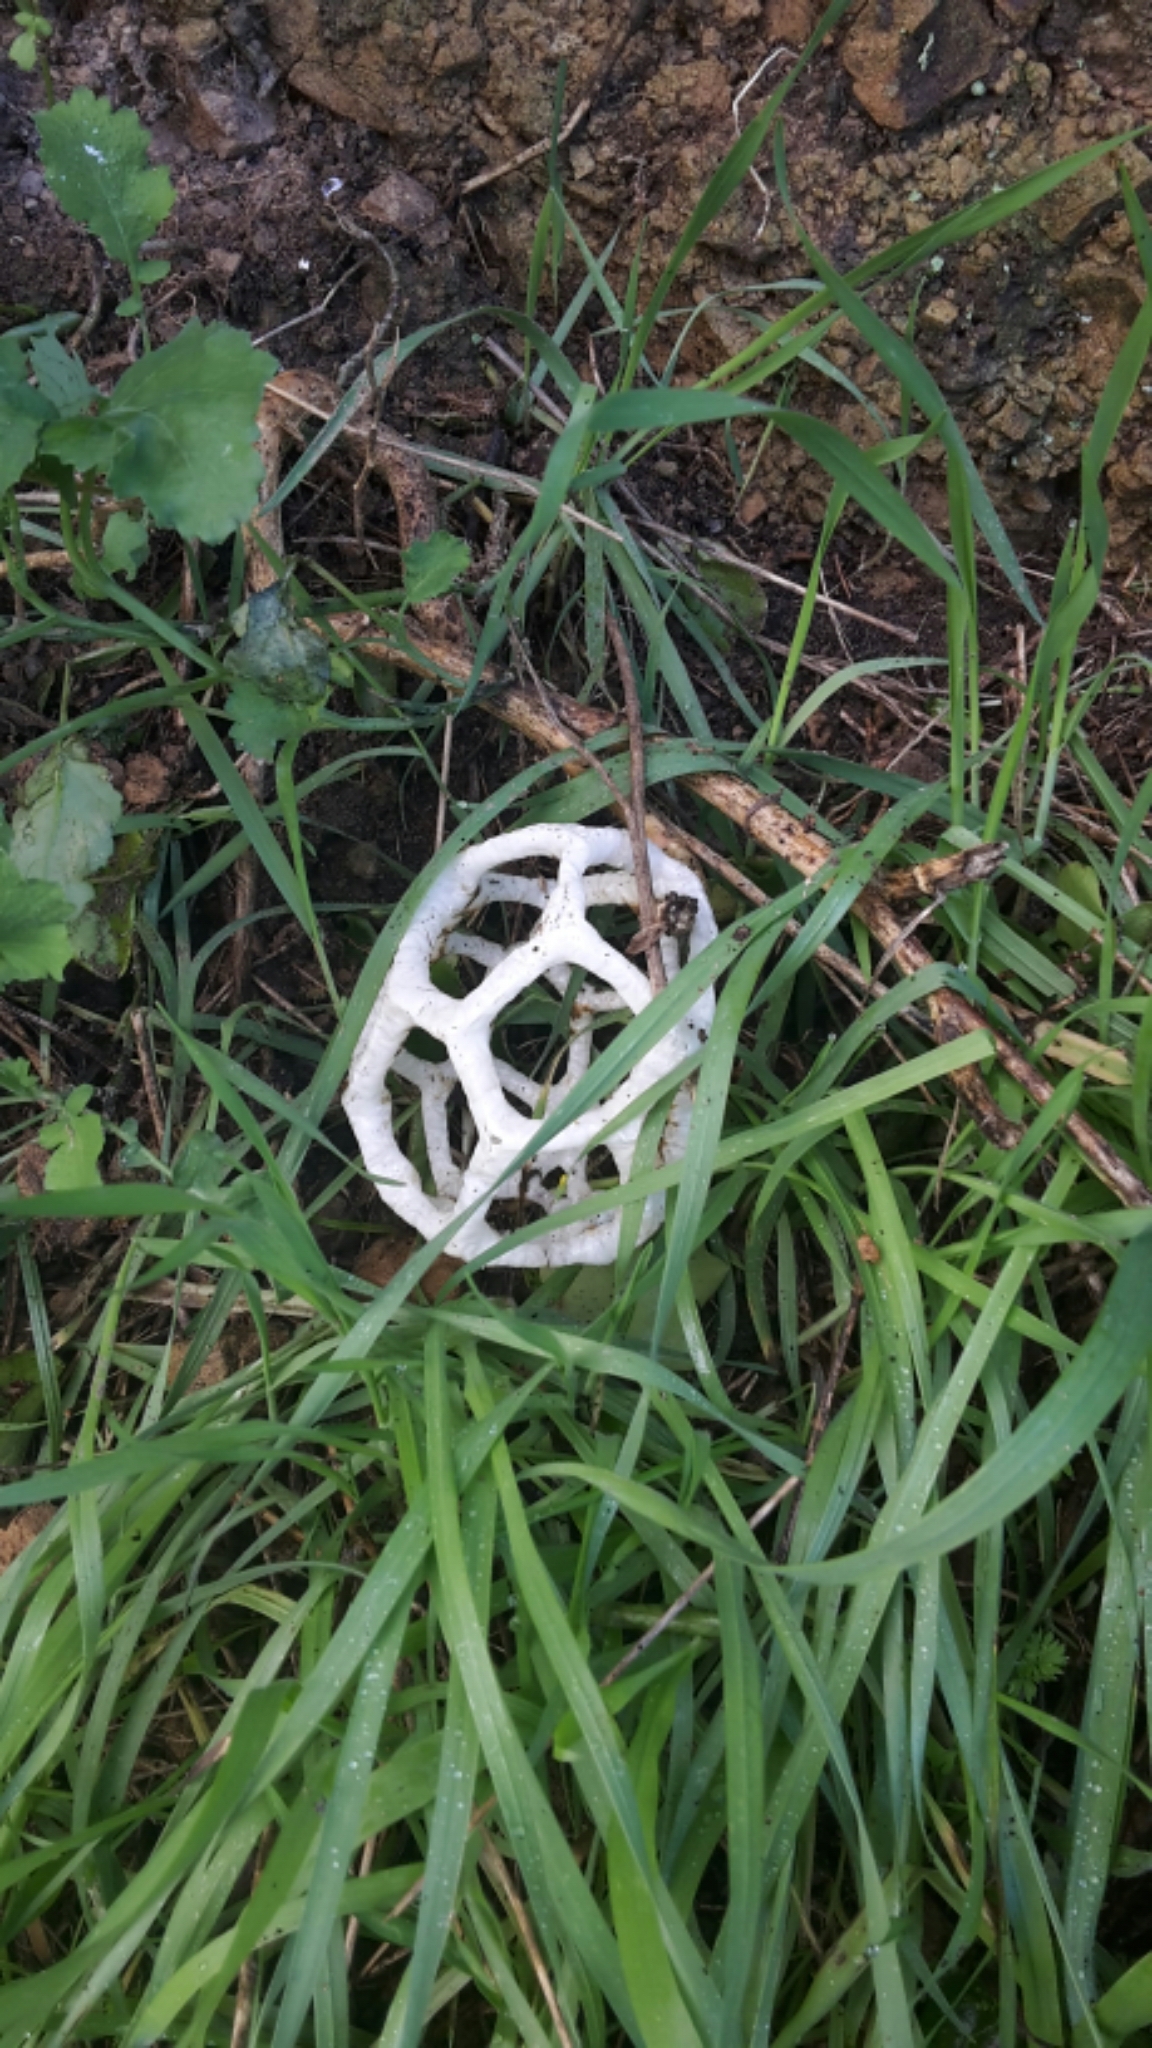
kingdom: Fungi
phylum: Basidiomycota
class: Agaricomycetes
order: Phallales
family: Phallaceae
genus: Ileodictyon
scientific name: Ileodictyon cibarium
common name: Basket fungus
